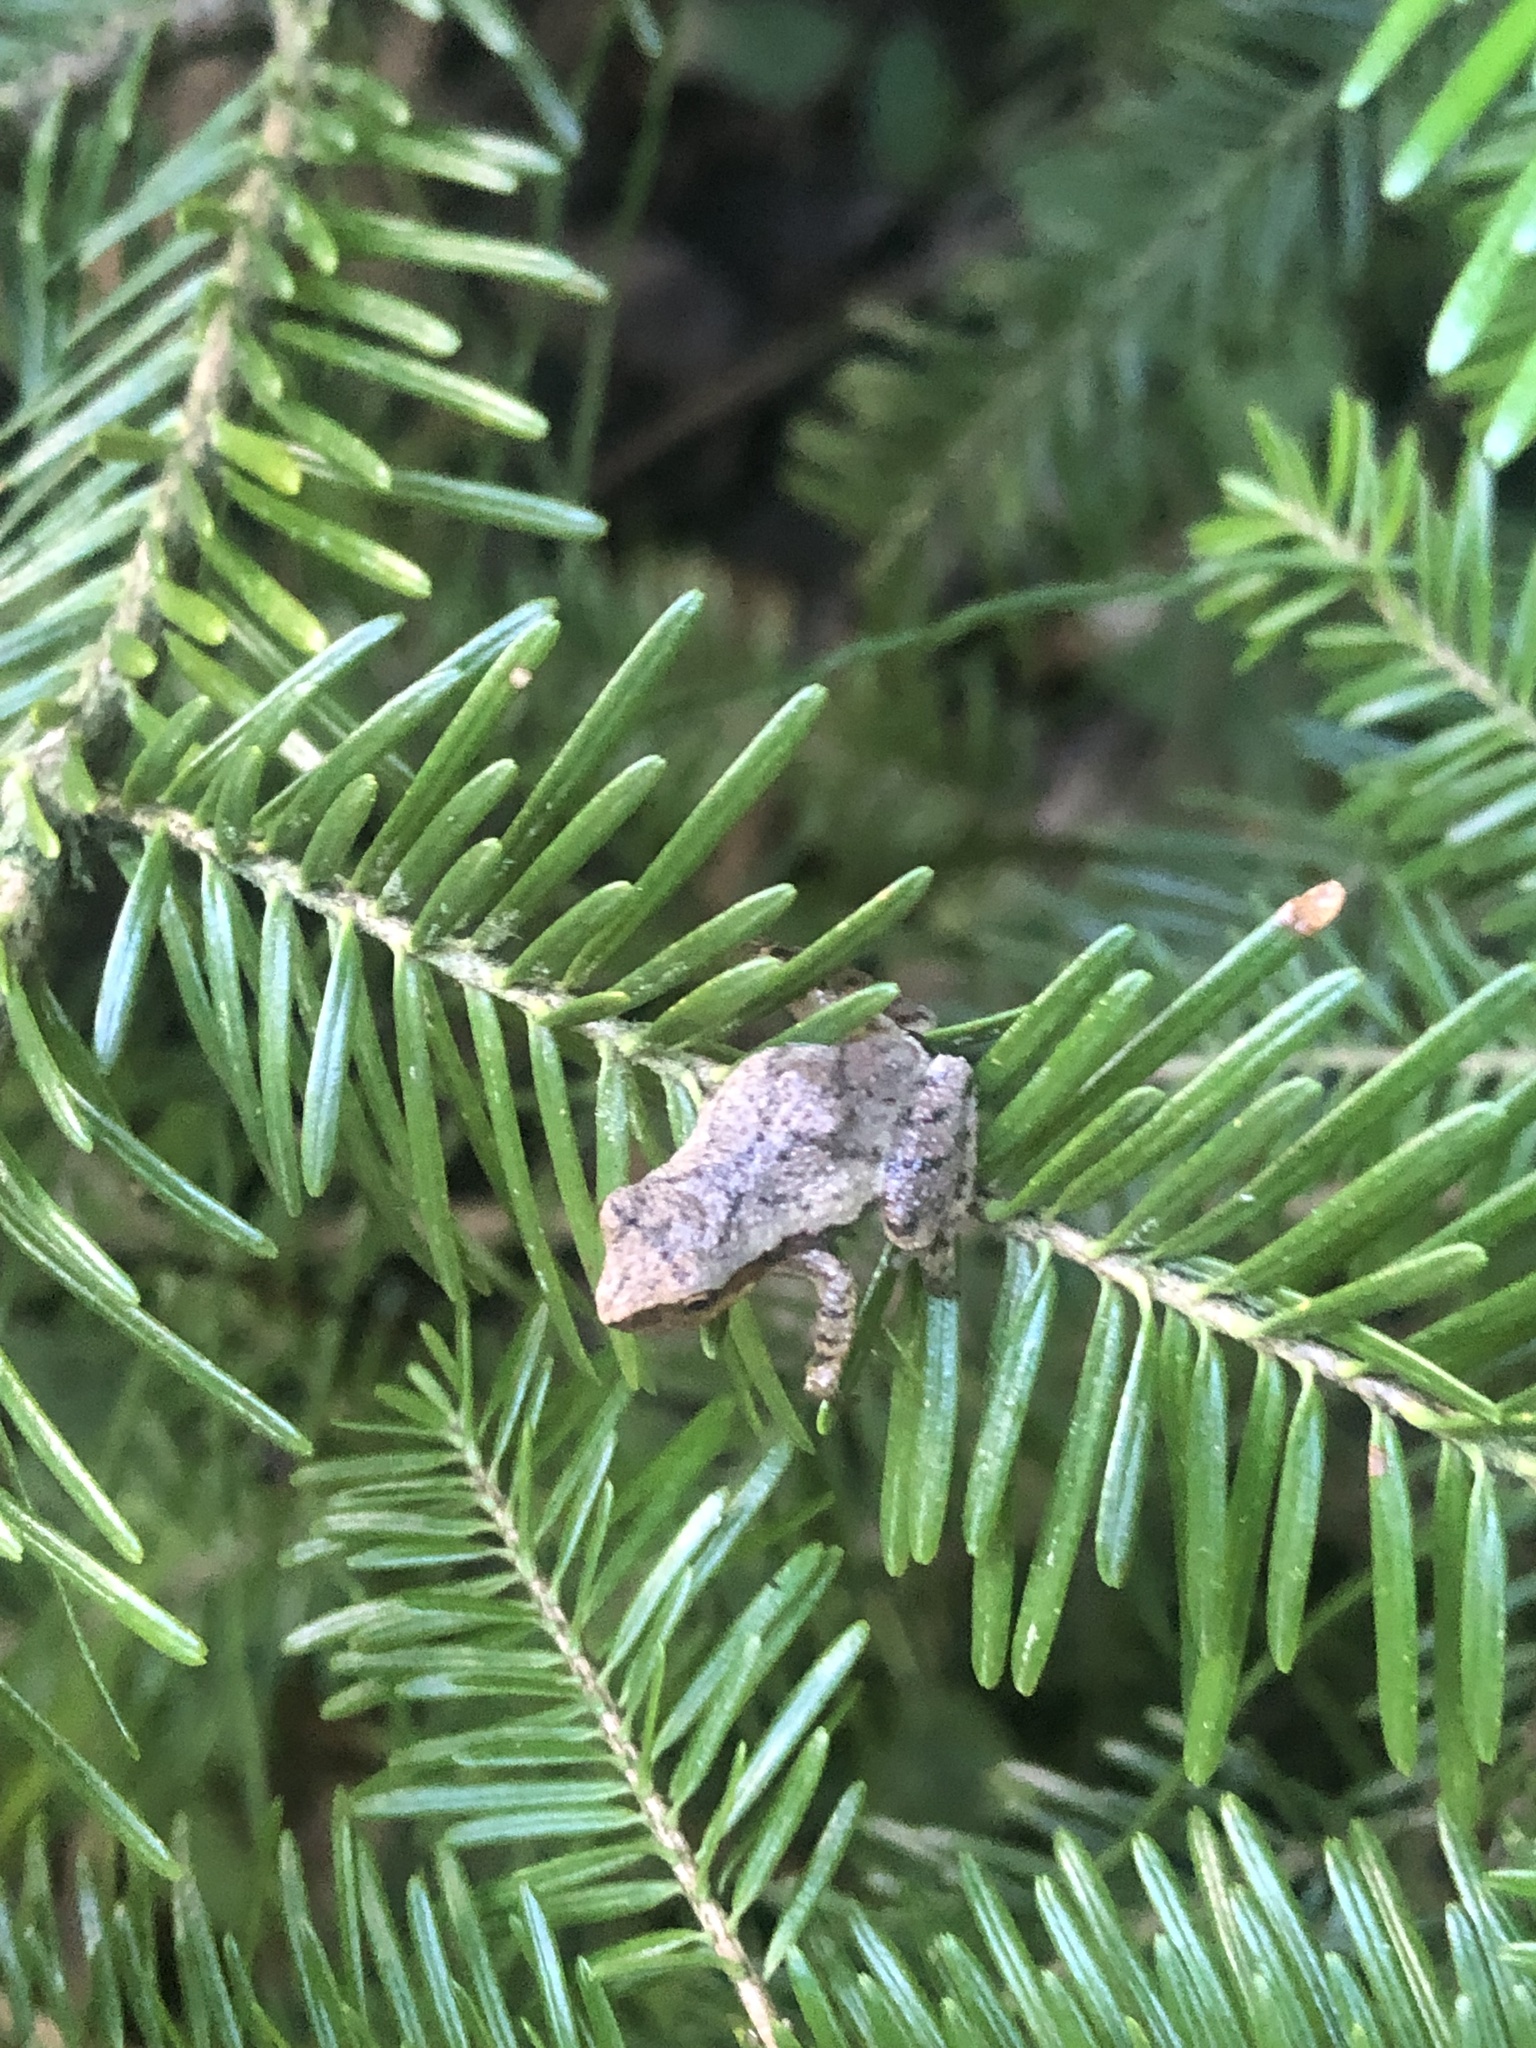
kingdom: Animalia
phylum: Chordata
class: Amphibia
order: Anura
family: Hylidae
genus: Pseudacris
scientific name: Pseudacris crucifer
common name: Spring peeper
